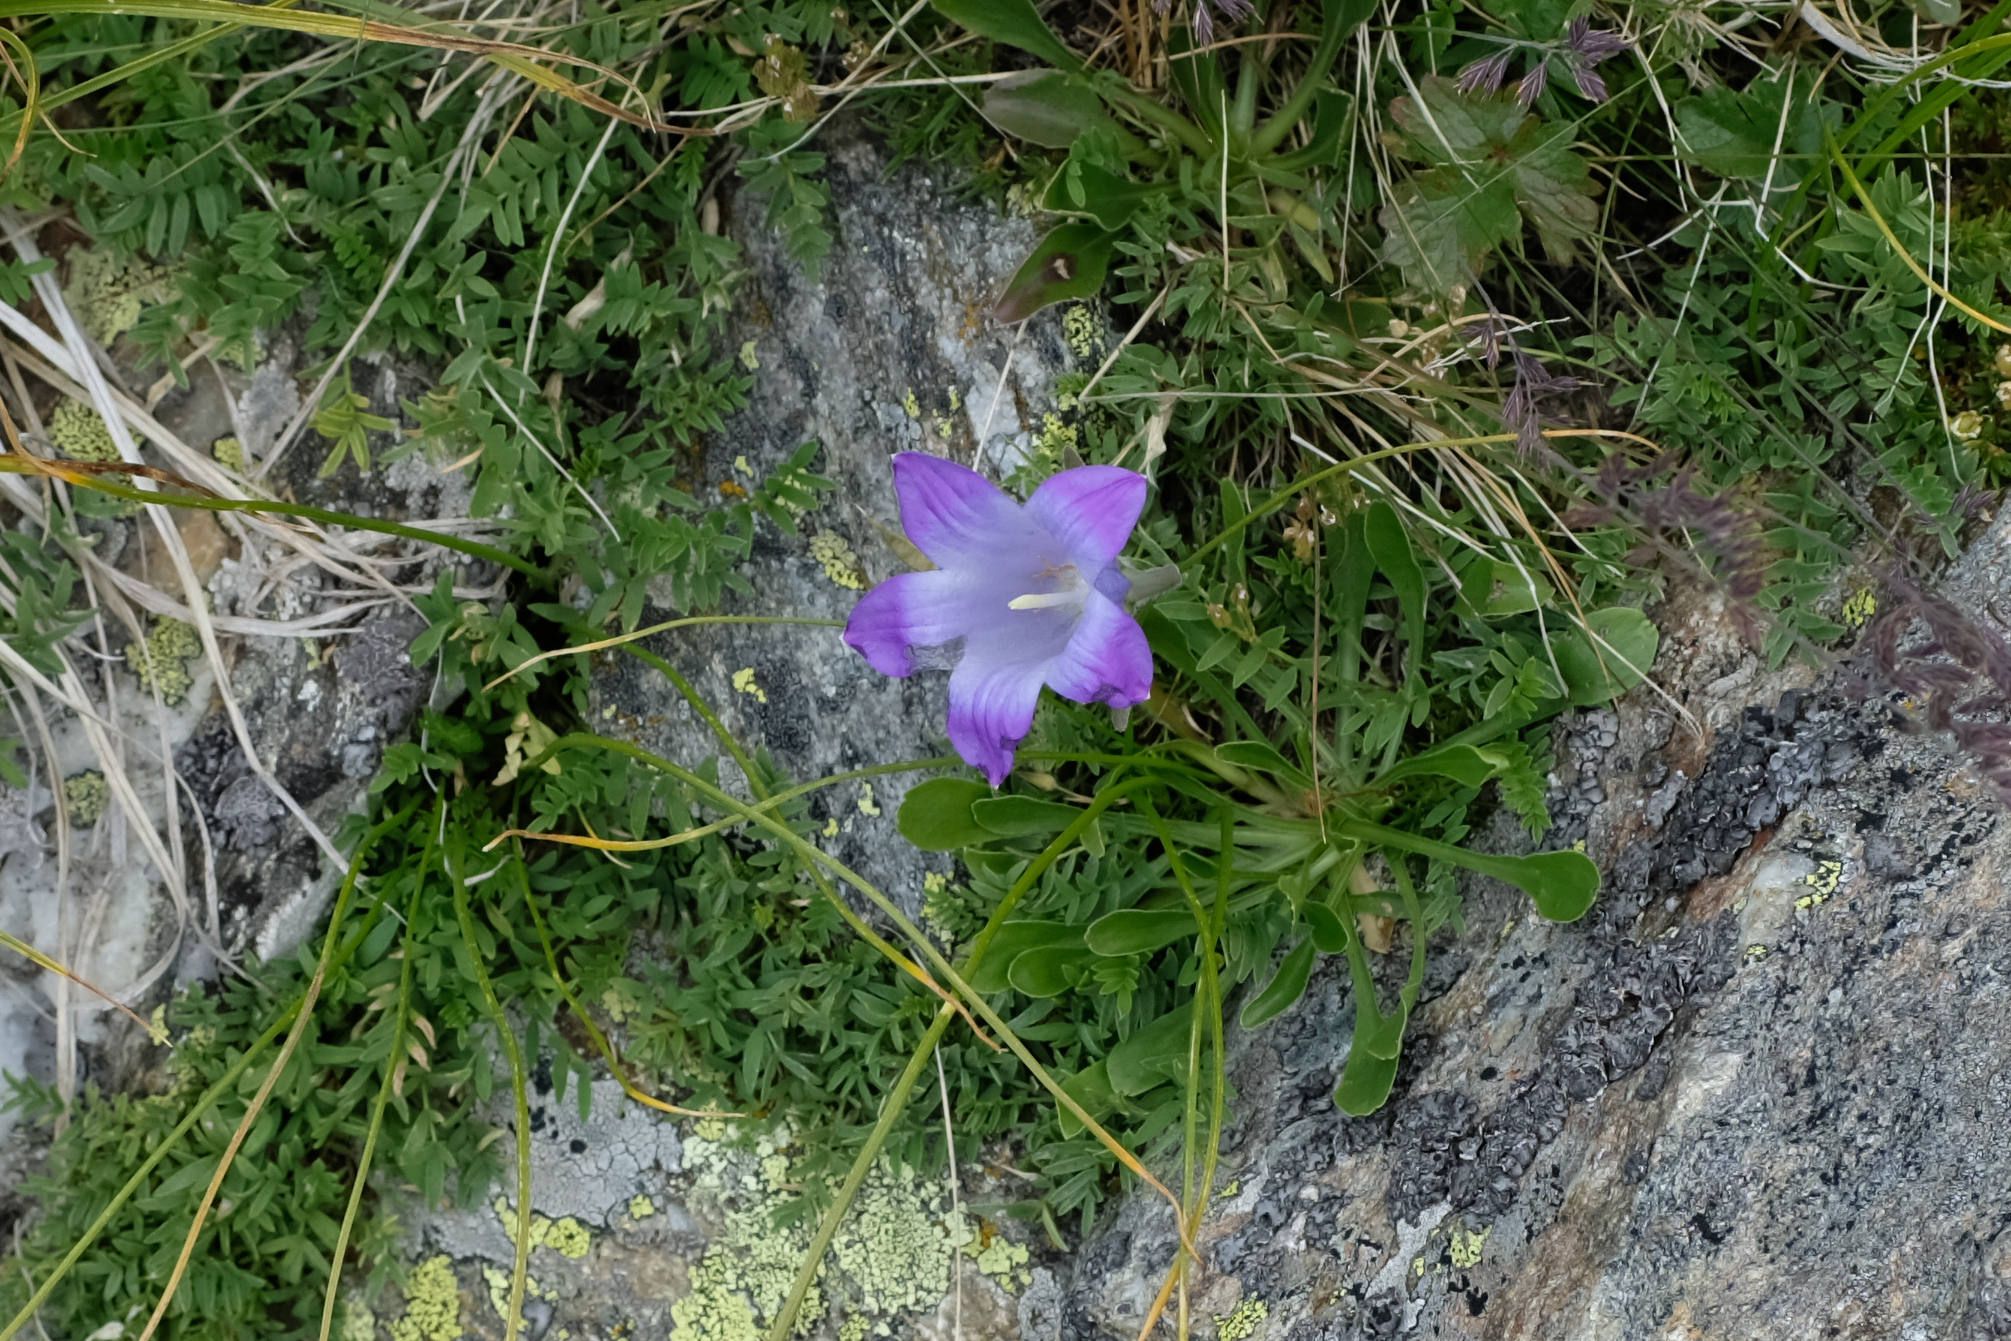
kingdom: Plantae
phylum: Tracheophyta
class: Magnoliopsida
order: Asterales
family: Campanulaceae
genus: Campanula
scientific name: Campanula tridentata
